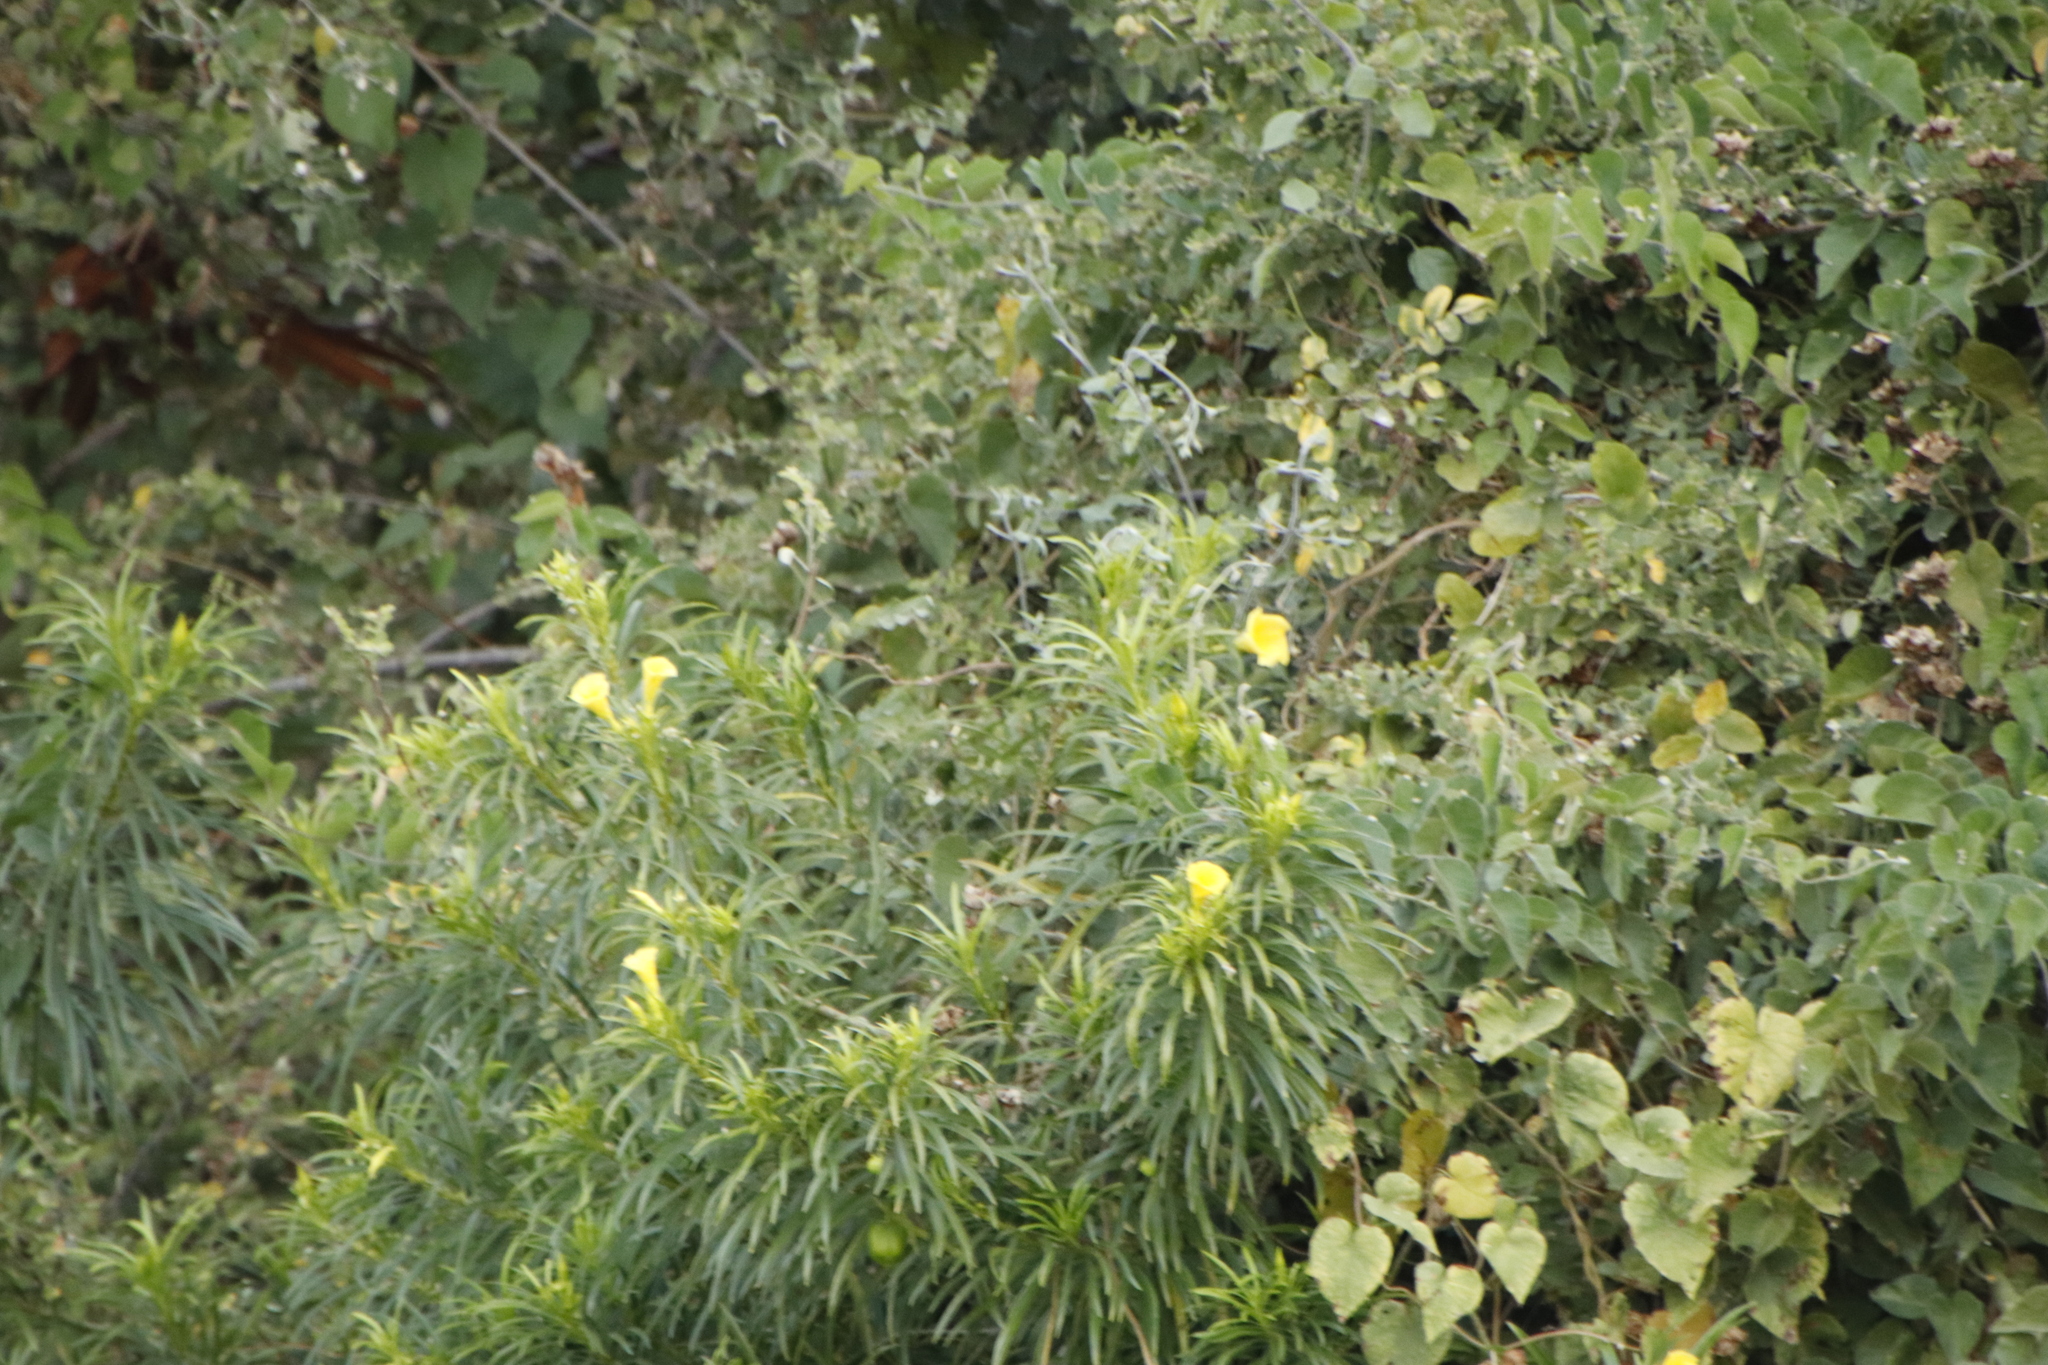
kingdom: Plantae
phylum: Tracheophyta
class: Magnoliopsida
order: Gentianales
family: Apocynaceae
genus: Cascabela
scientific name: Cascabela thevetia
